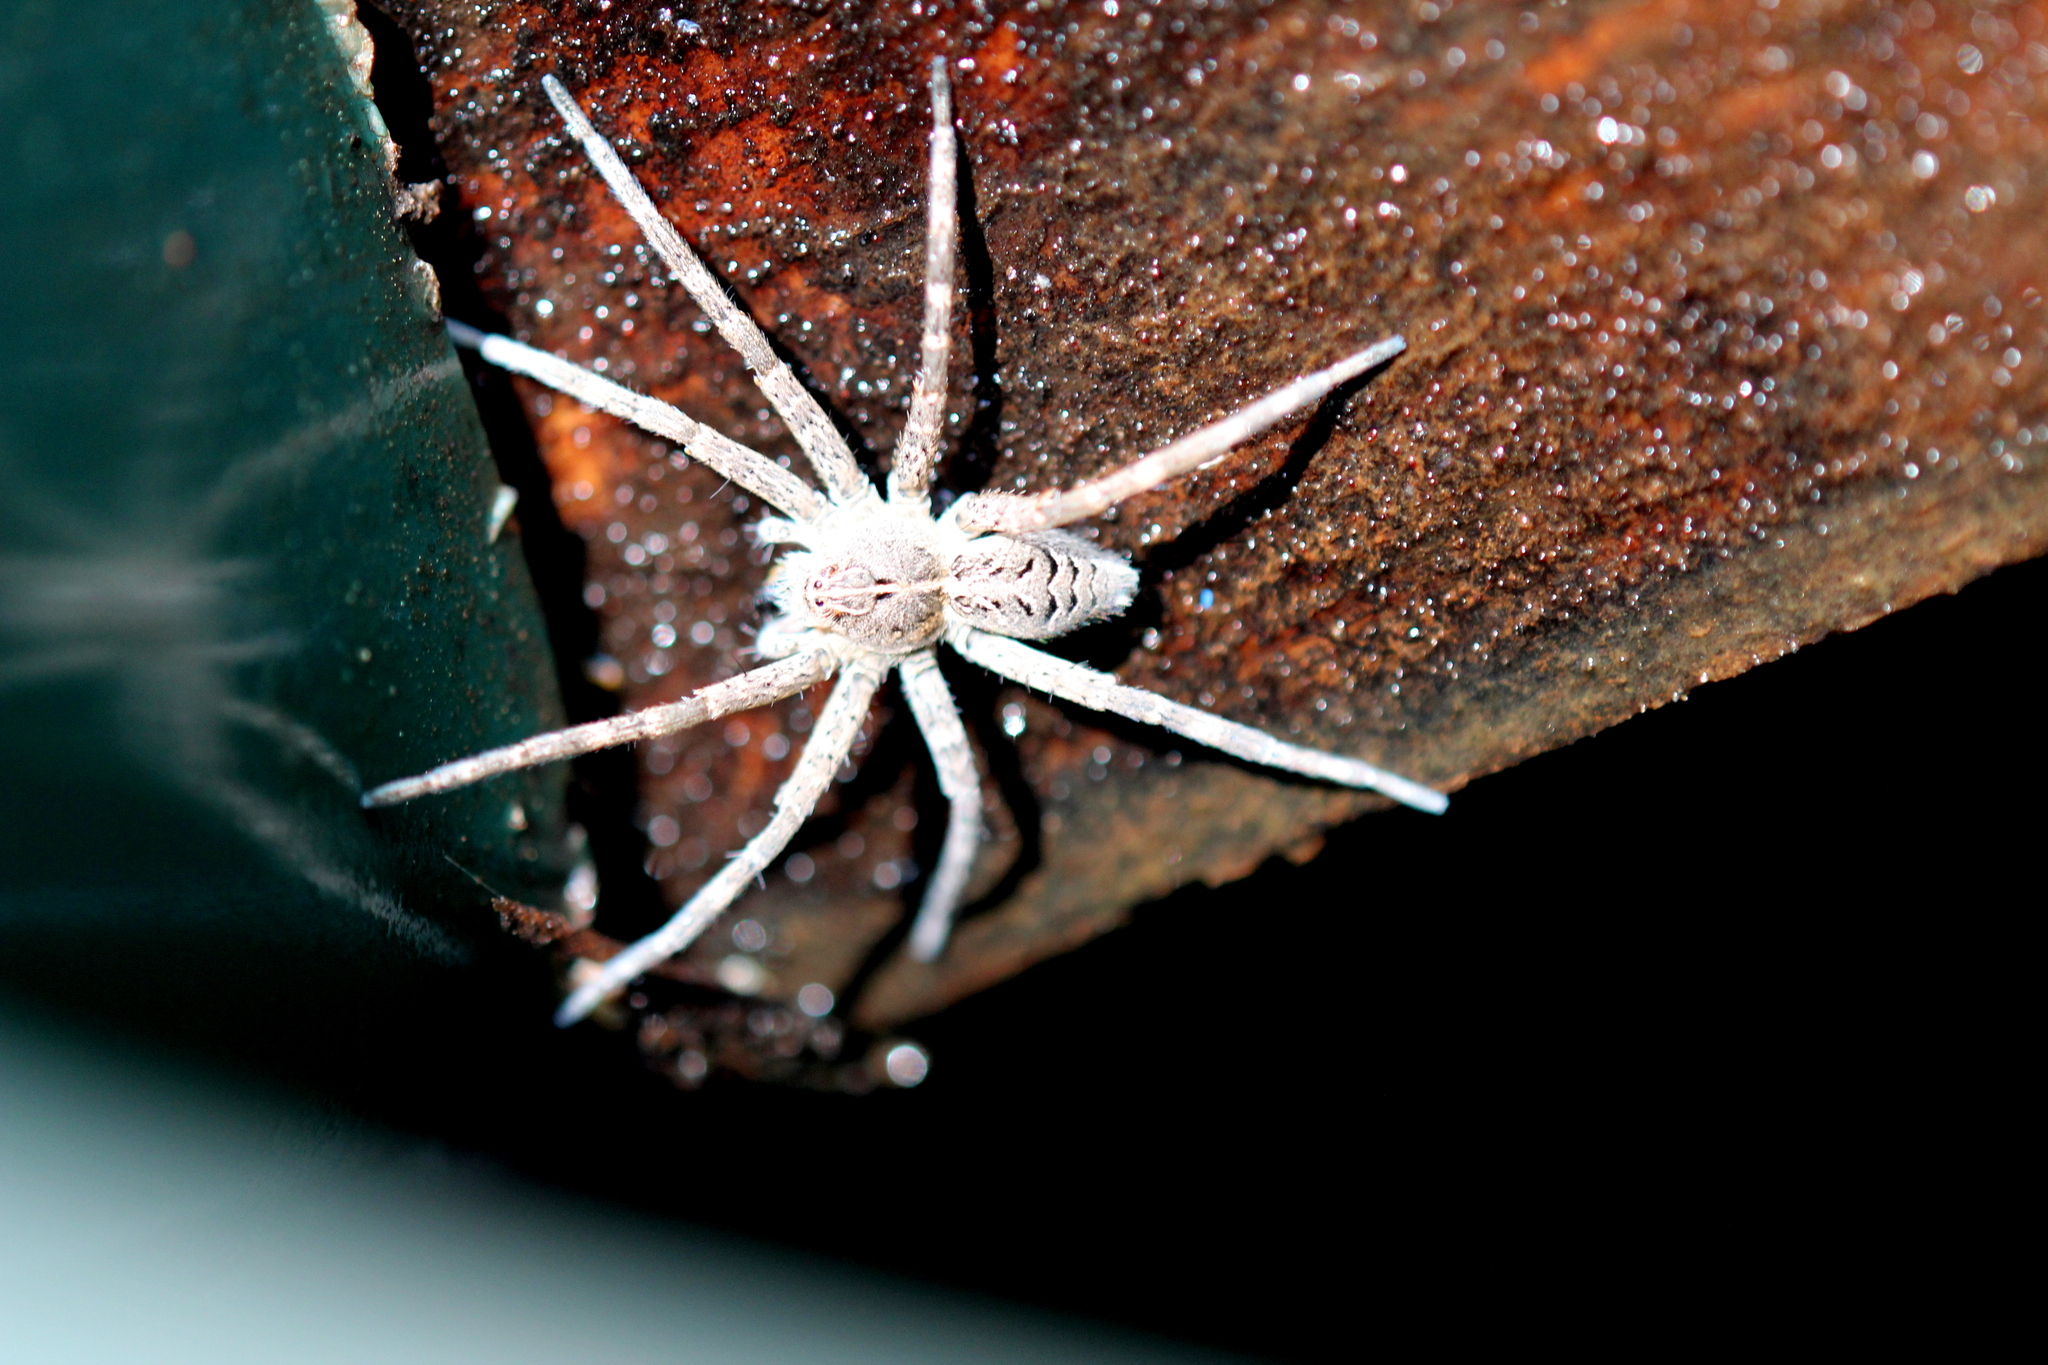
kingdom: Animalia
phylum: Arthropoda
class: Arachnida
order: Araneae
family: Pisauridae
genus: Dolomedes
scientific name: Dolomedes scriptus
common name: Striped fishing spider
